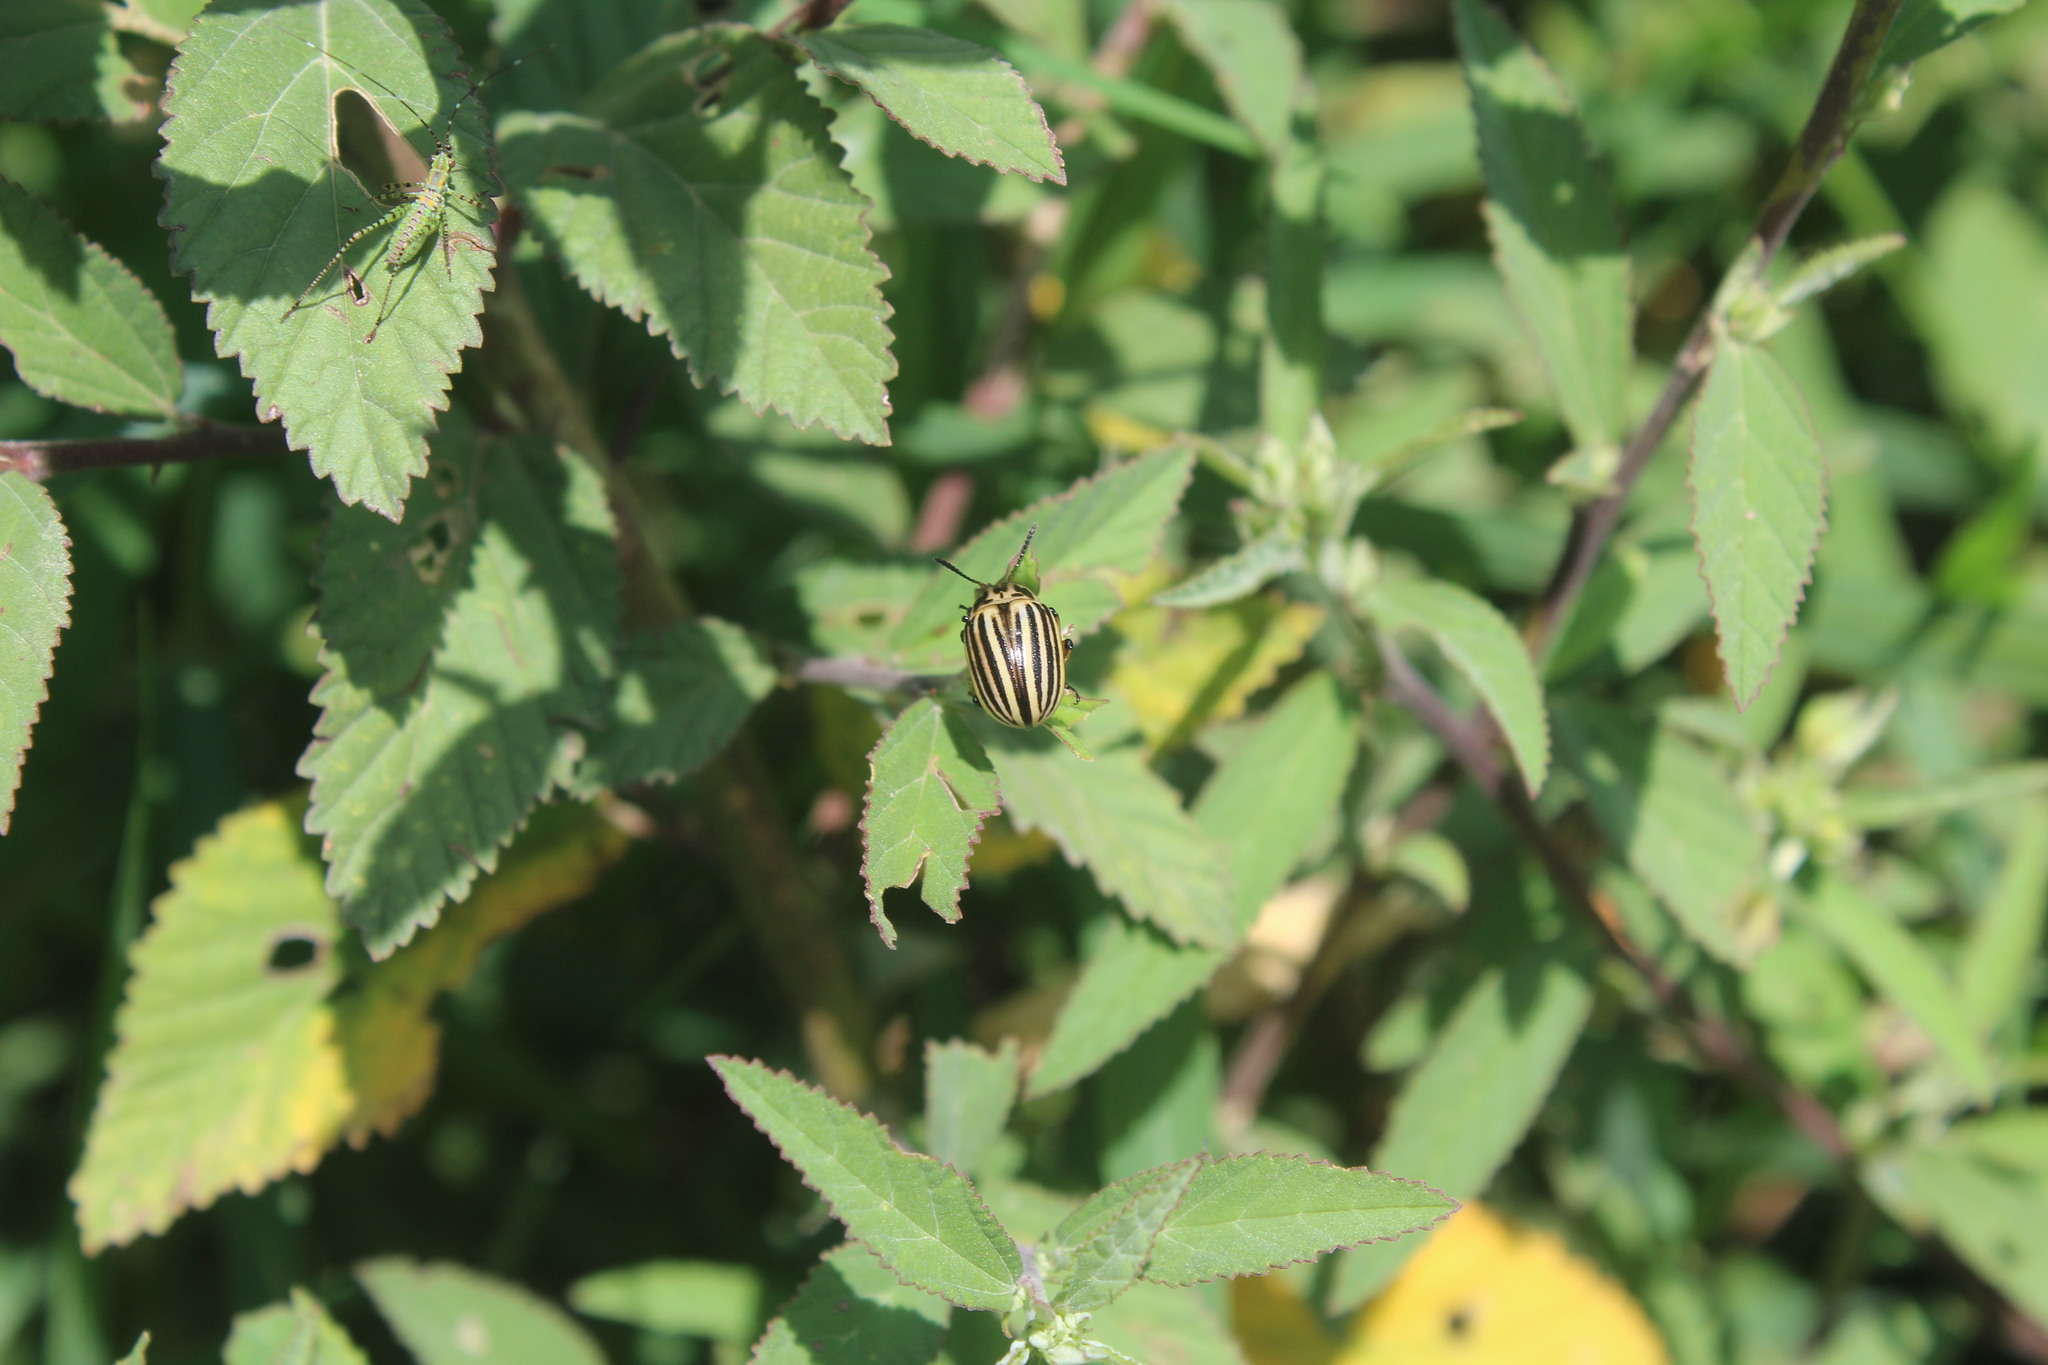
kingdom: Animalia
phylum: Arthropoda
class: Insecta
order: Coleoptera
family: Chrysomelidae
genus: Leptinotarsa
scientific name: Leptinotarsa decemlineata
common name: Colorado potato beetle
